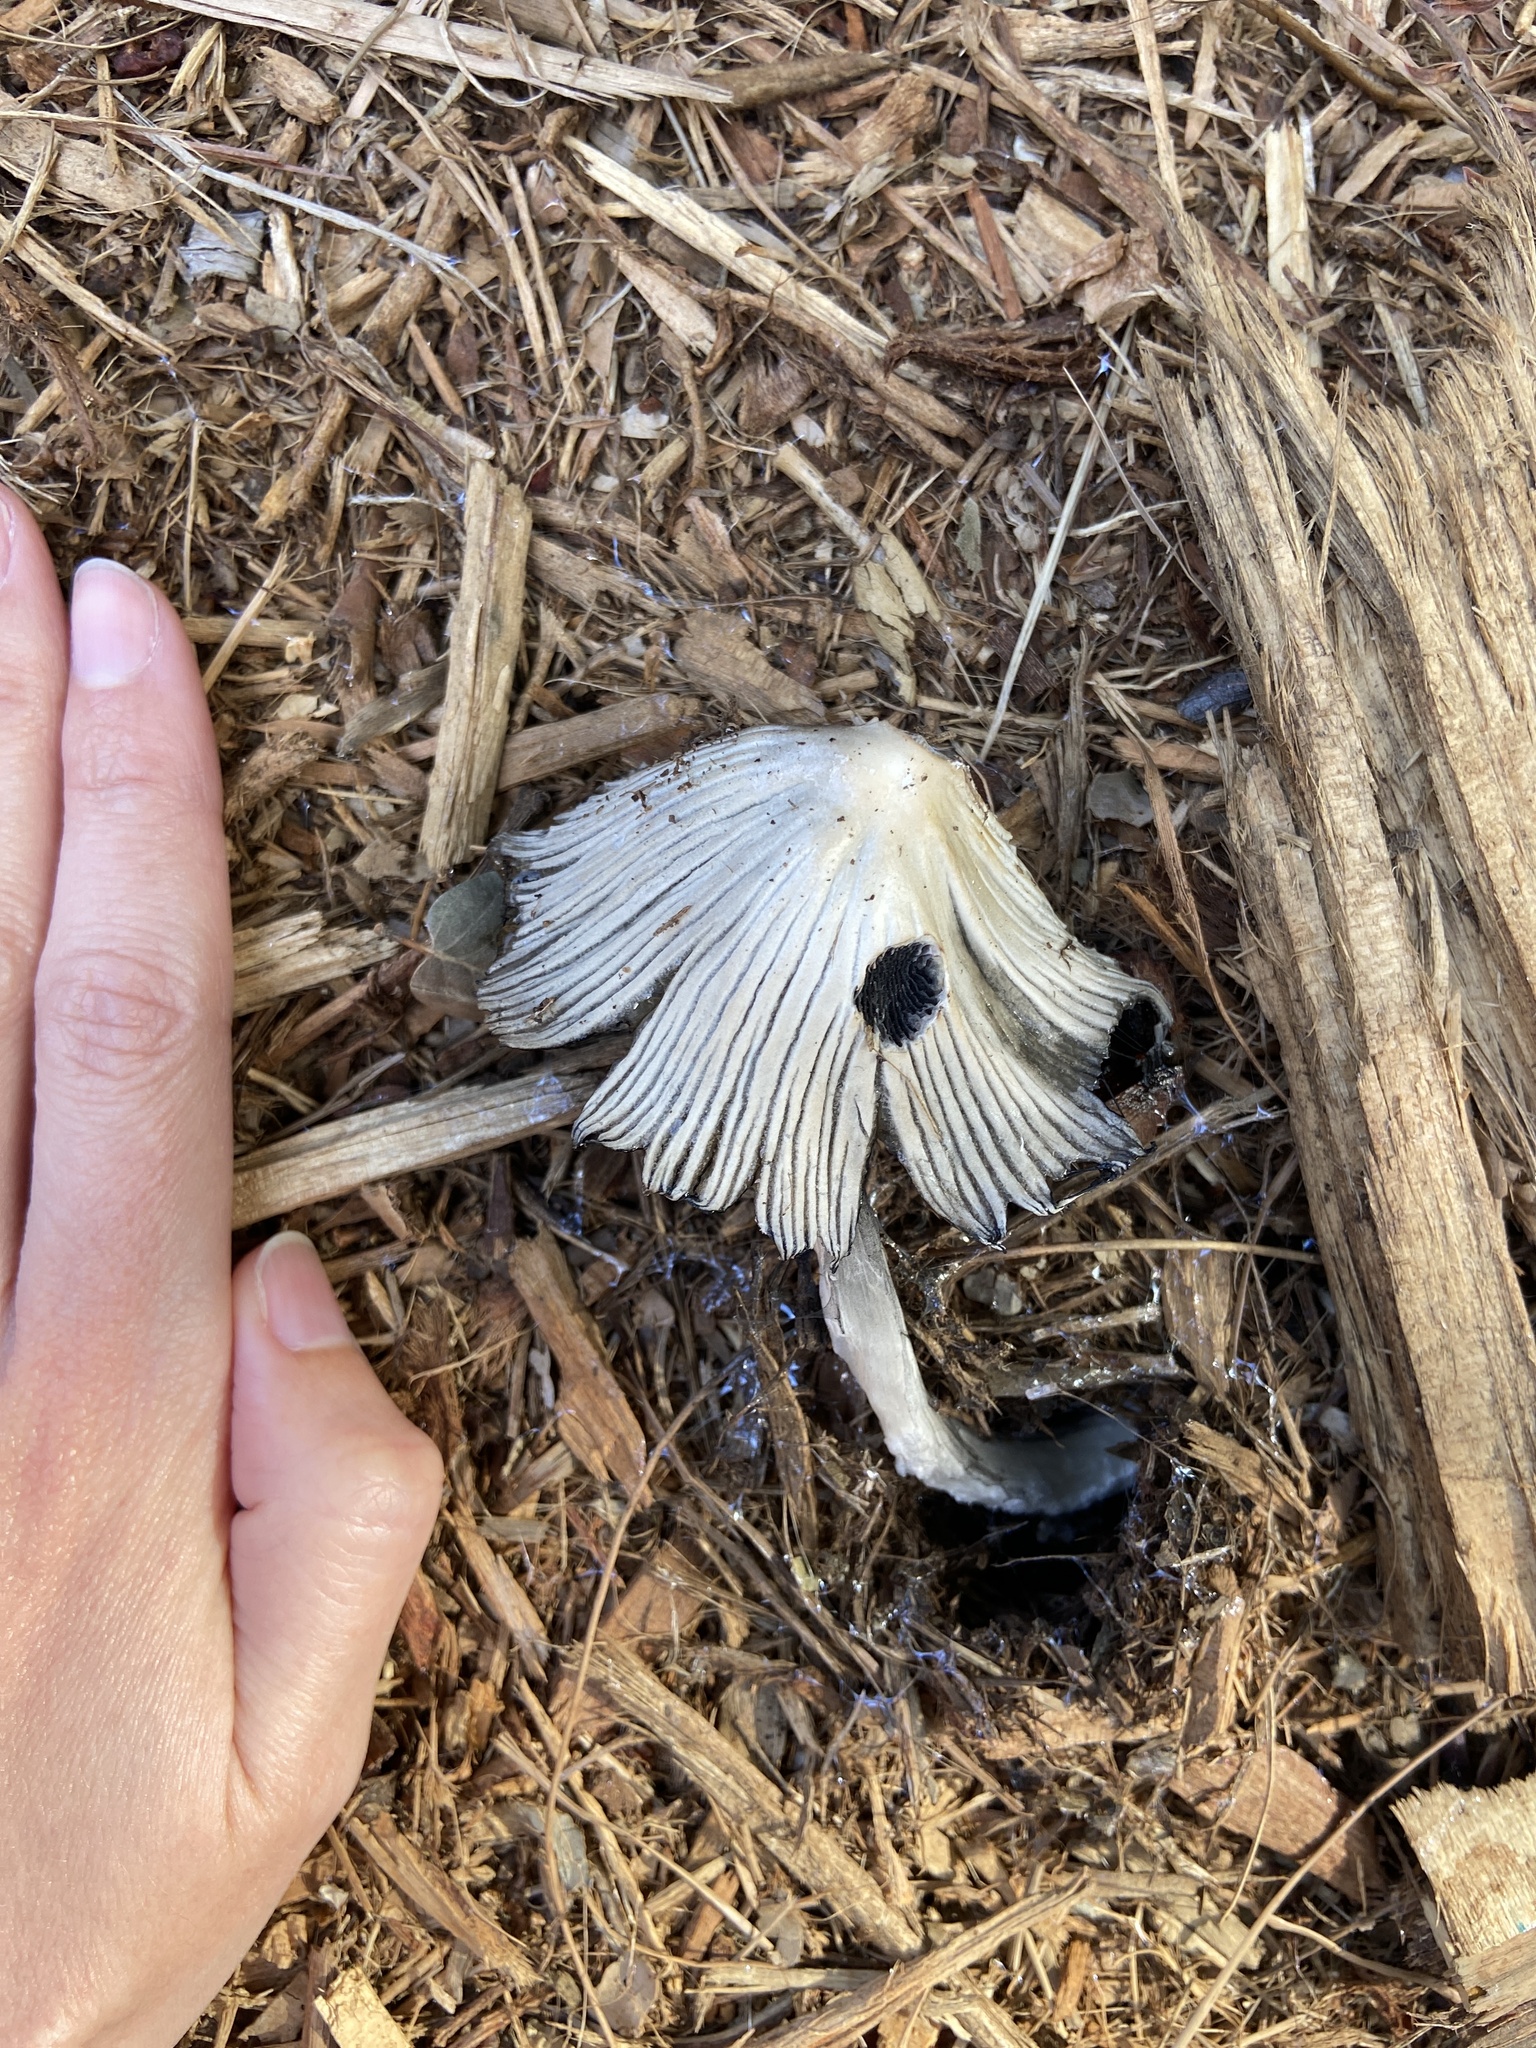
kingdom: Fungi
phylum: Basidiomycota
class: Agaricomycetes
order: Agaricales
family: Psathyrellaceae
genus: Coprinellus
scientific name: Coprinellus flocculosus
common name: Flocculose inkcap
